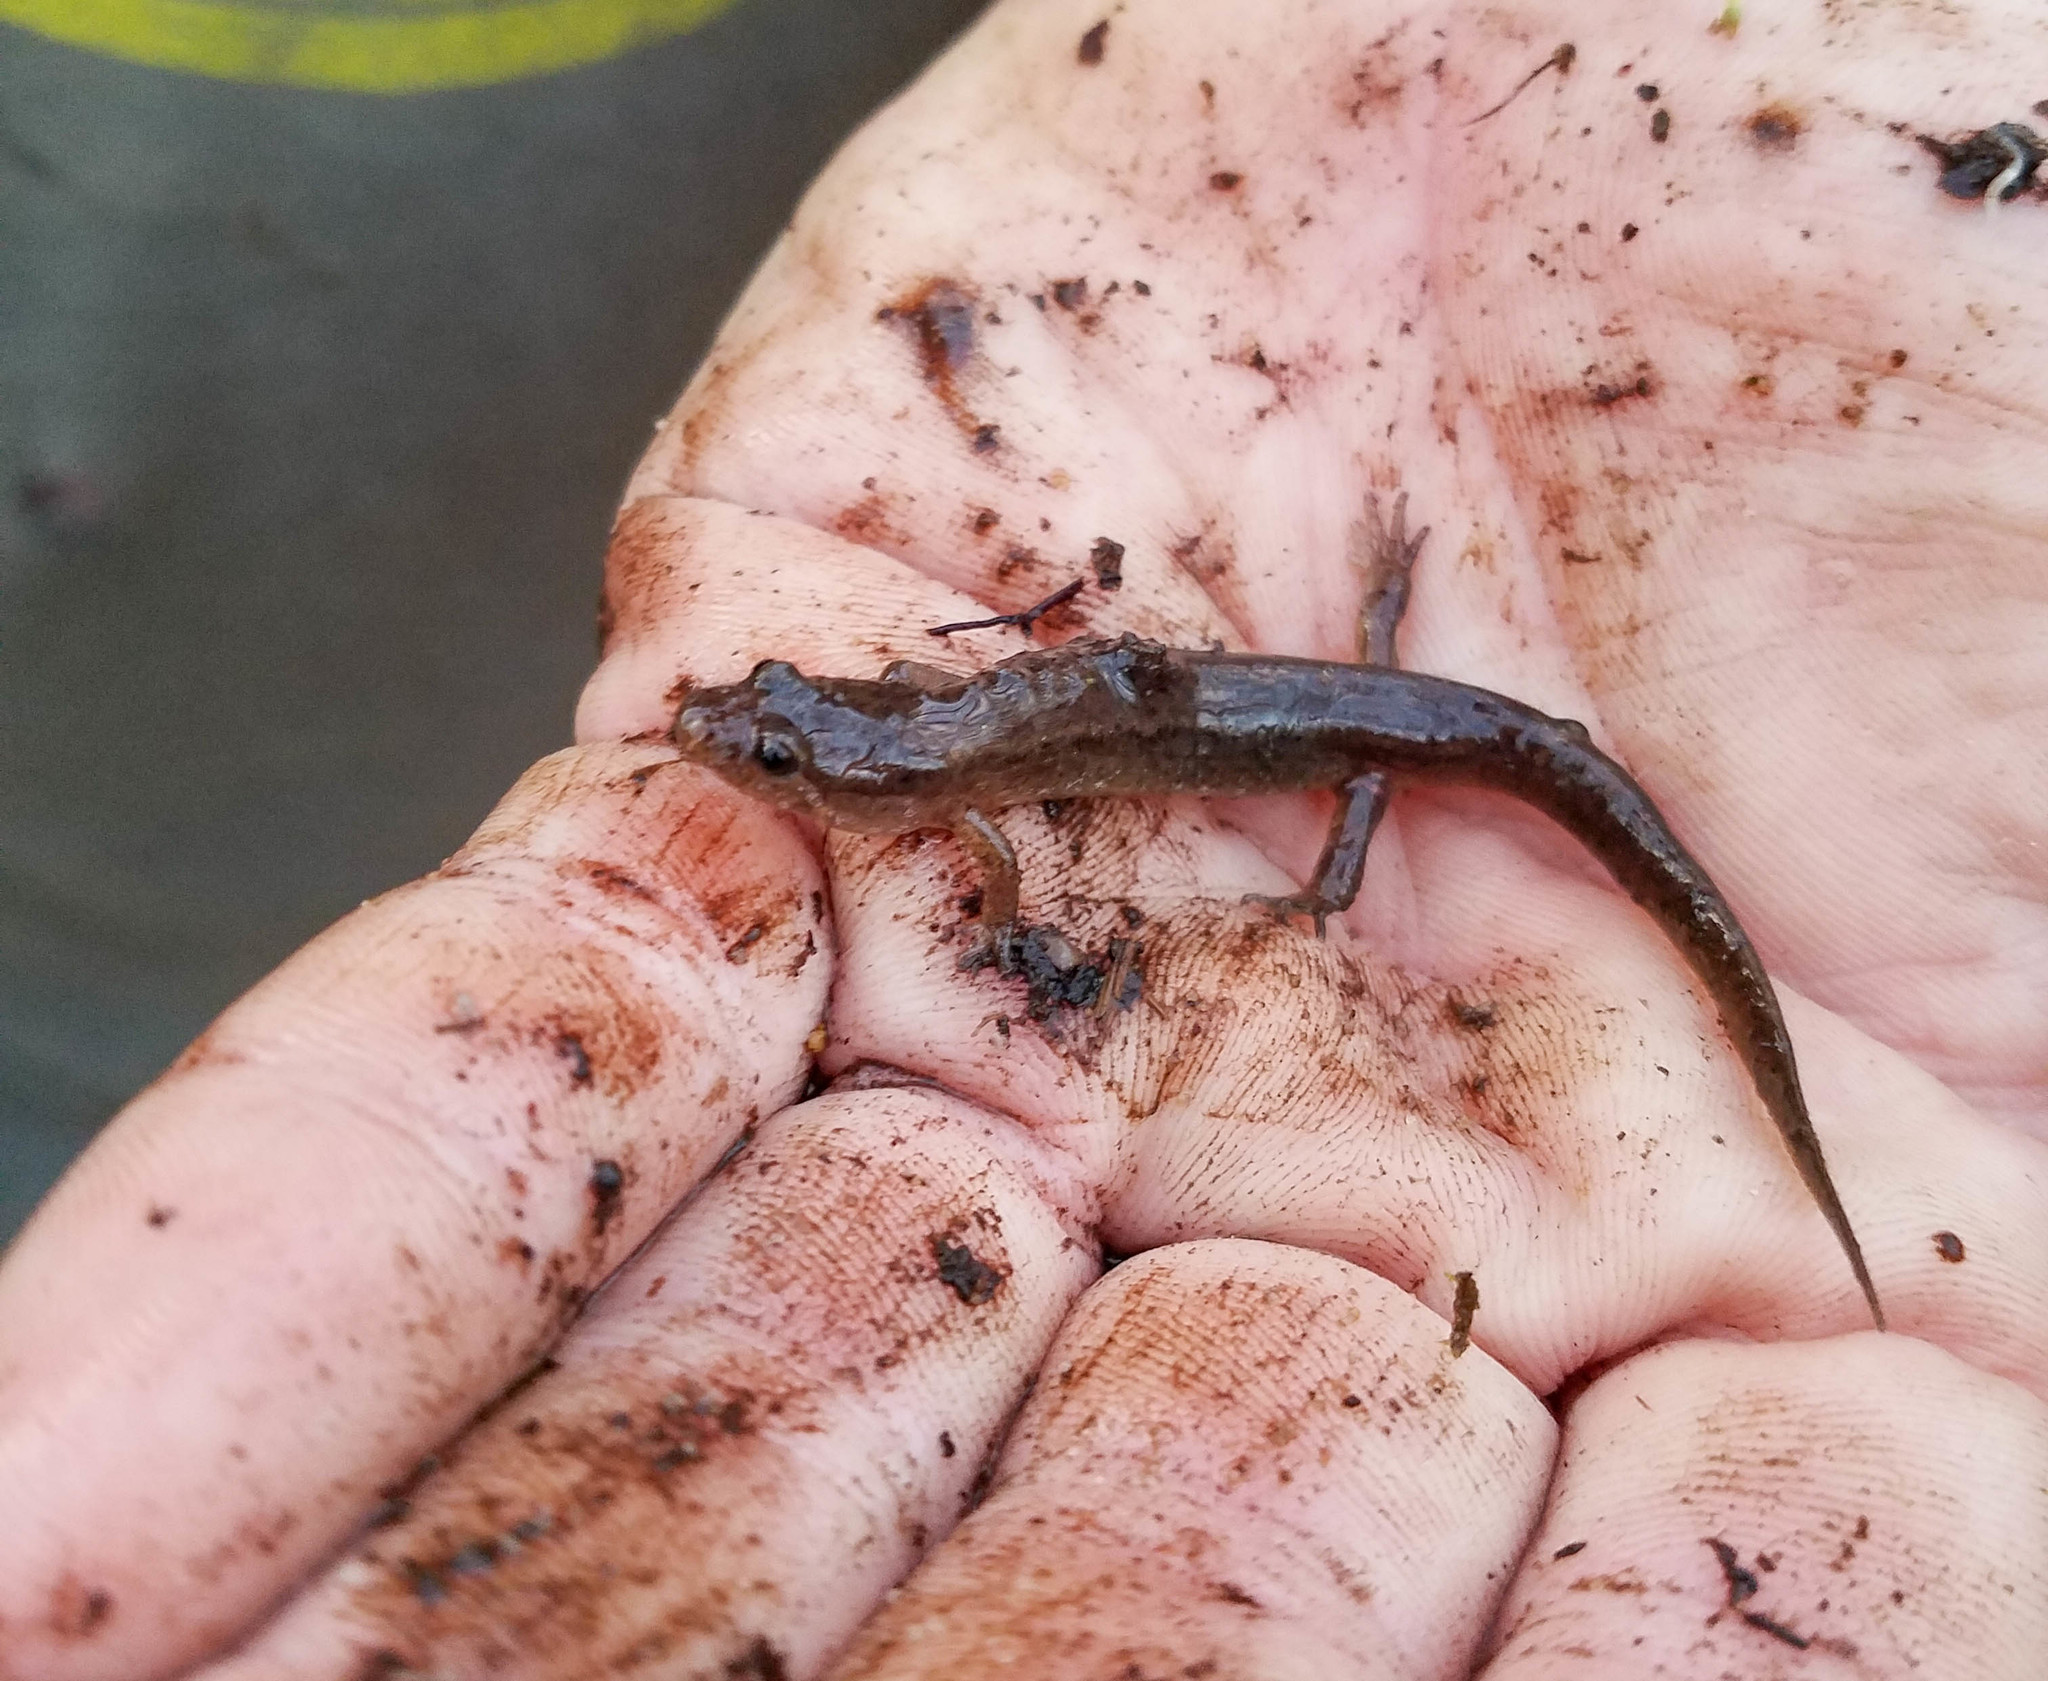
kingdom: Animalia
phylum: Chordata
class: Amphibia
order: Caudata
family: Plethodontidae
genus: Desmognathus
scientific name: Desmognathus fuscus
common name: Northern dusky salamander
